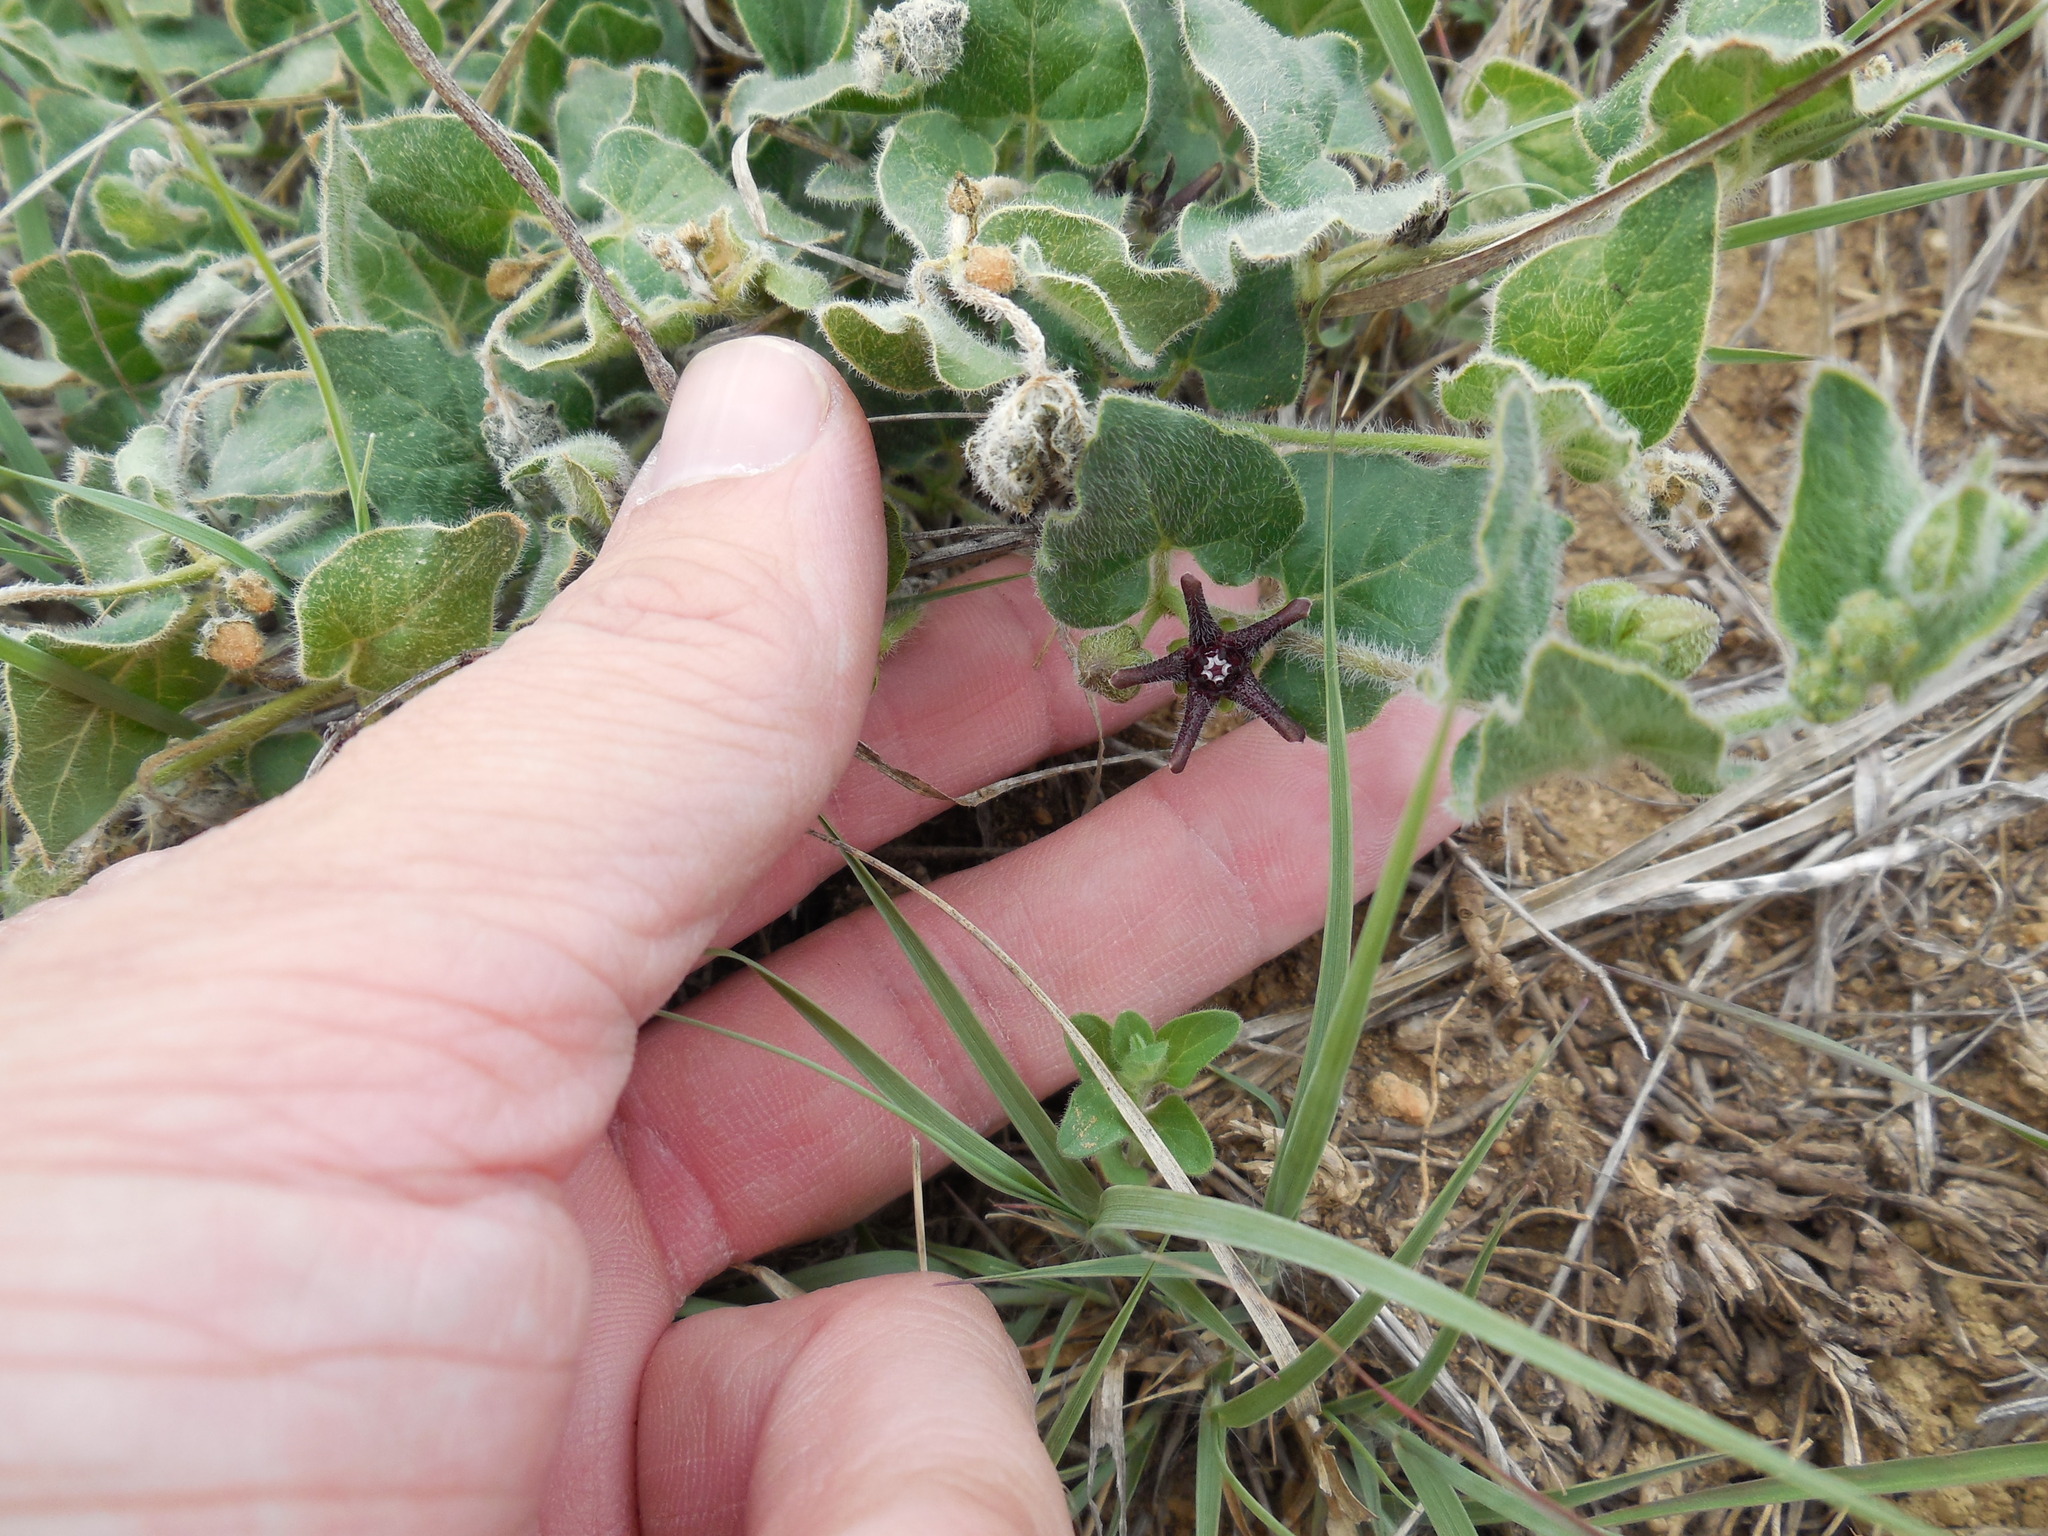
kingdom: Plantae
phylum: Tracheophyta
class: Magnoliopsida
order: Gentianales
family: Apocynaceae
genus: Chthamalia
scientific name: Chthamalia biflora
